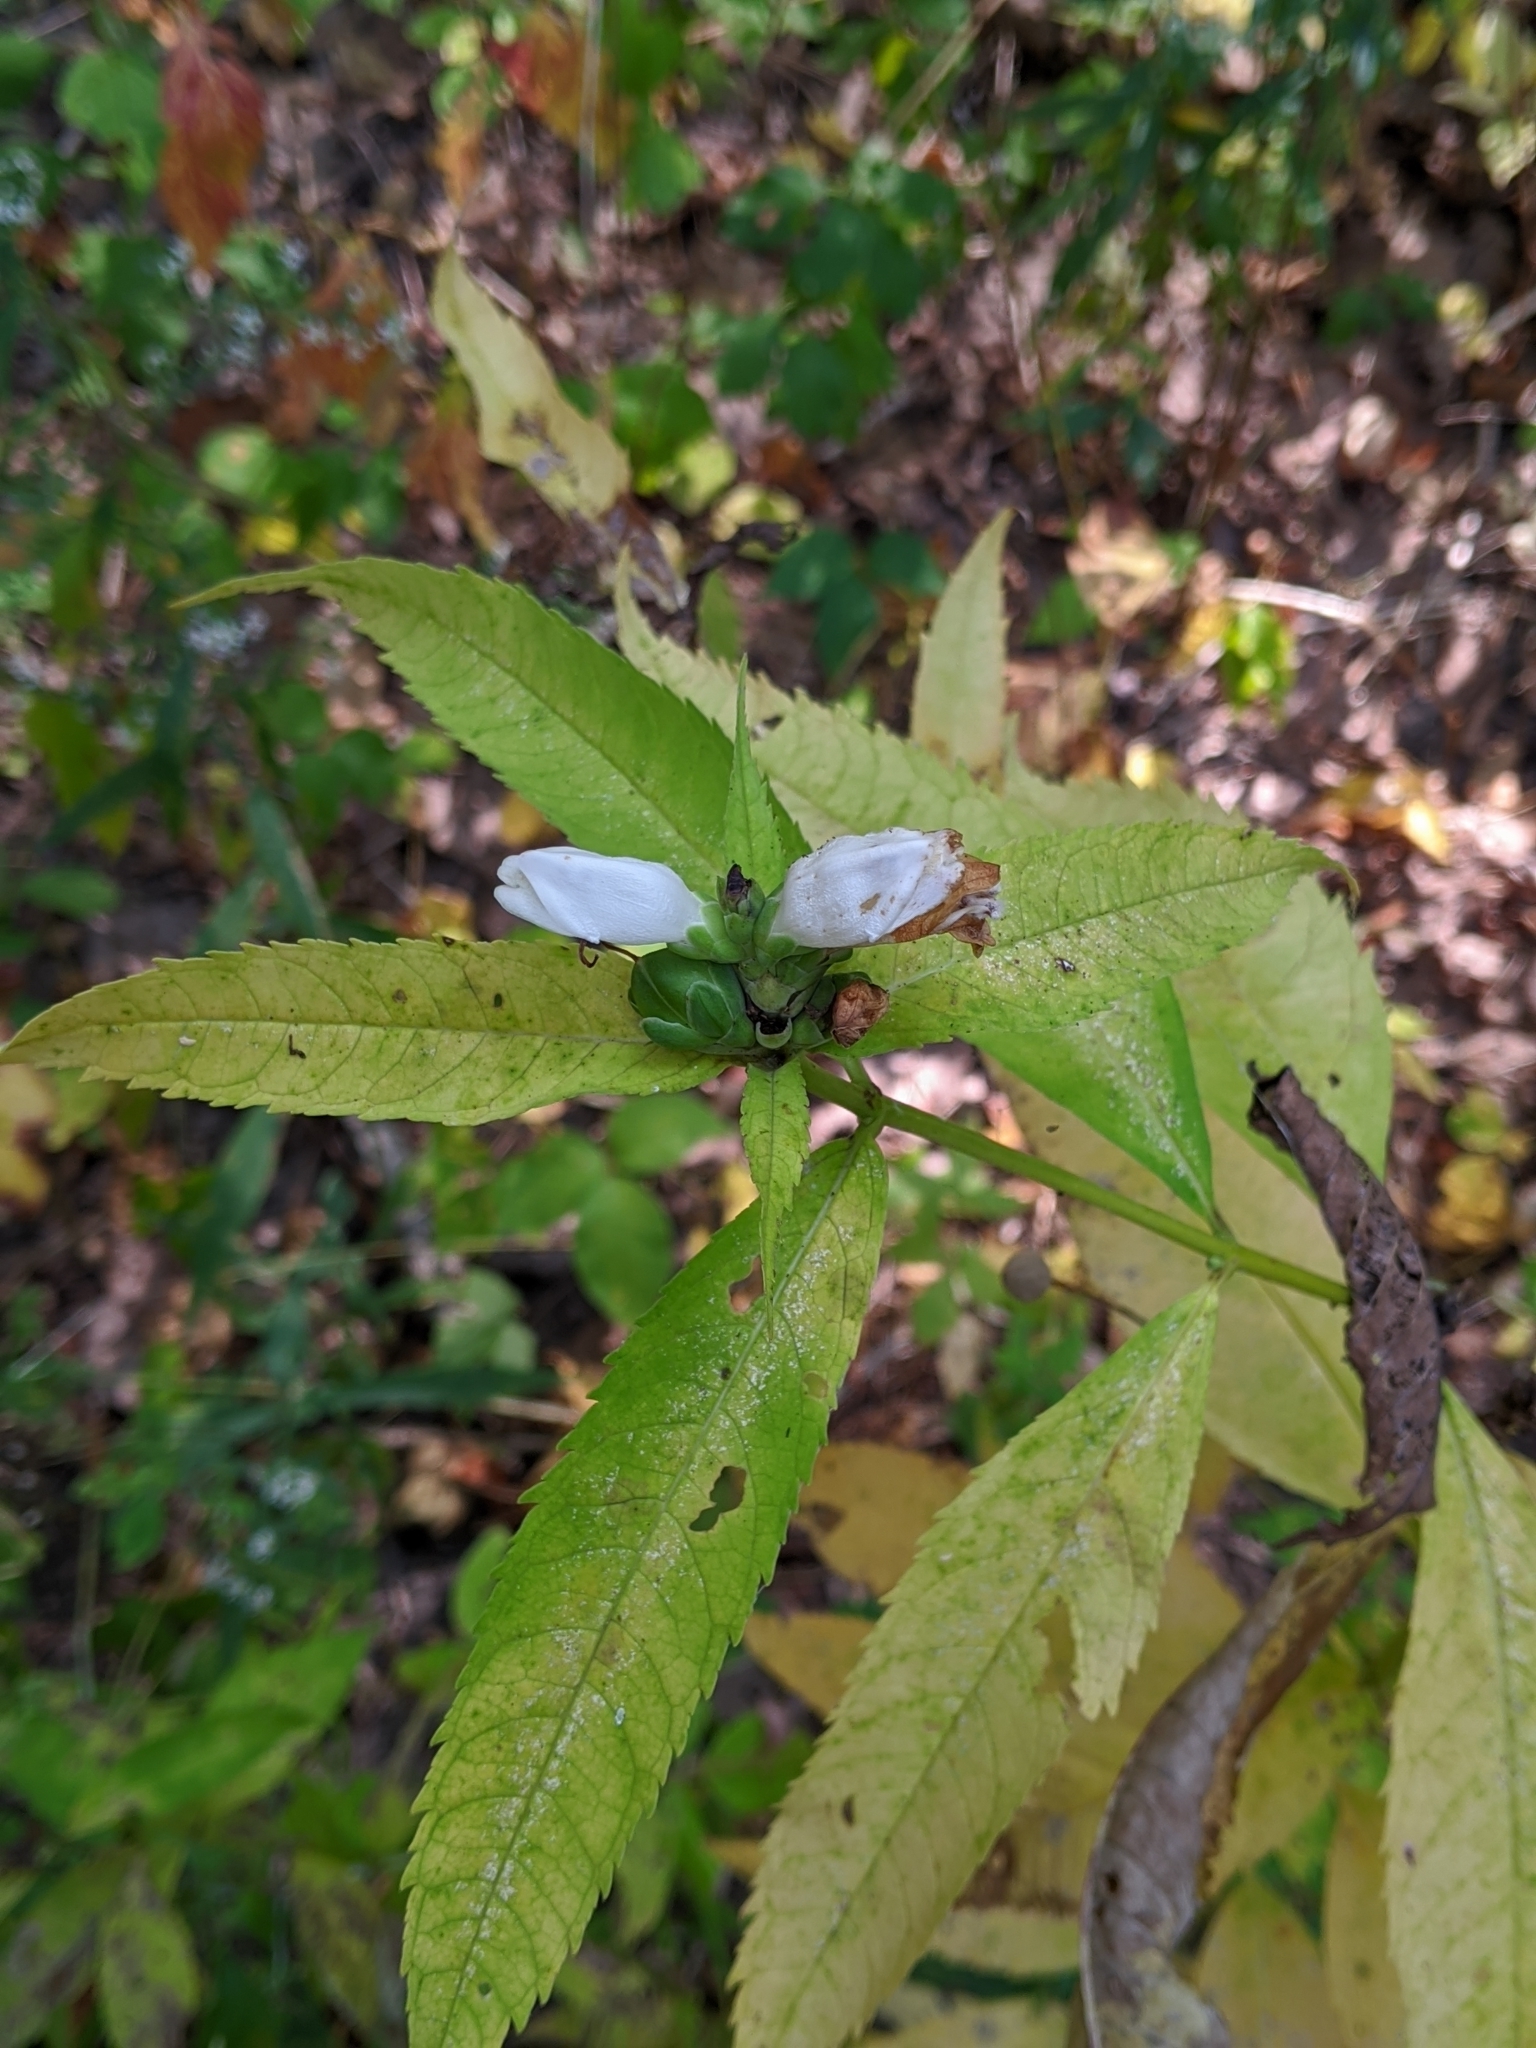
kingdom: Plantae
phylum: Tracheophyta
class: Magnoliopsida
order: Lamiales
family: Plantaginaceae
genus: Chelone
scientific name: Chelone glabra
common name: Snakehead
